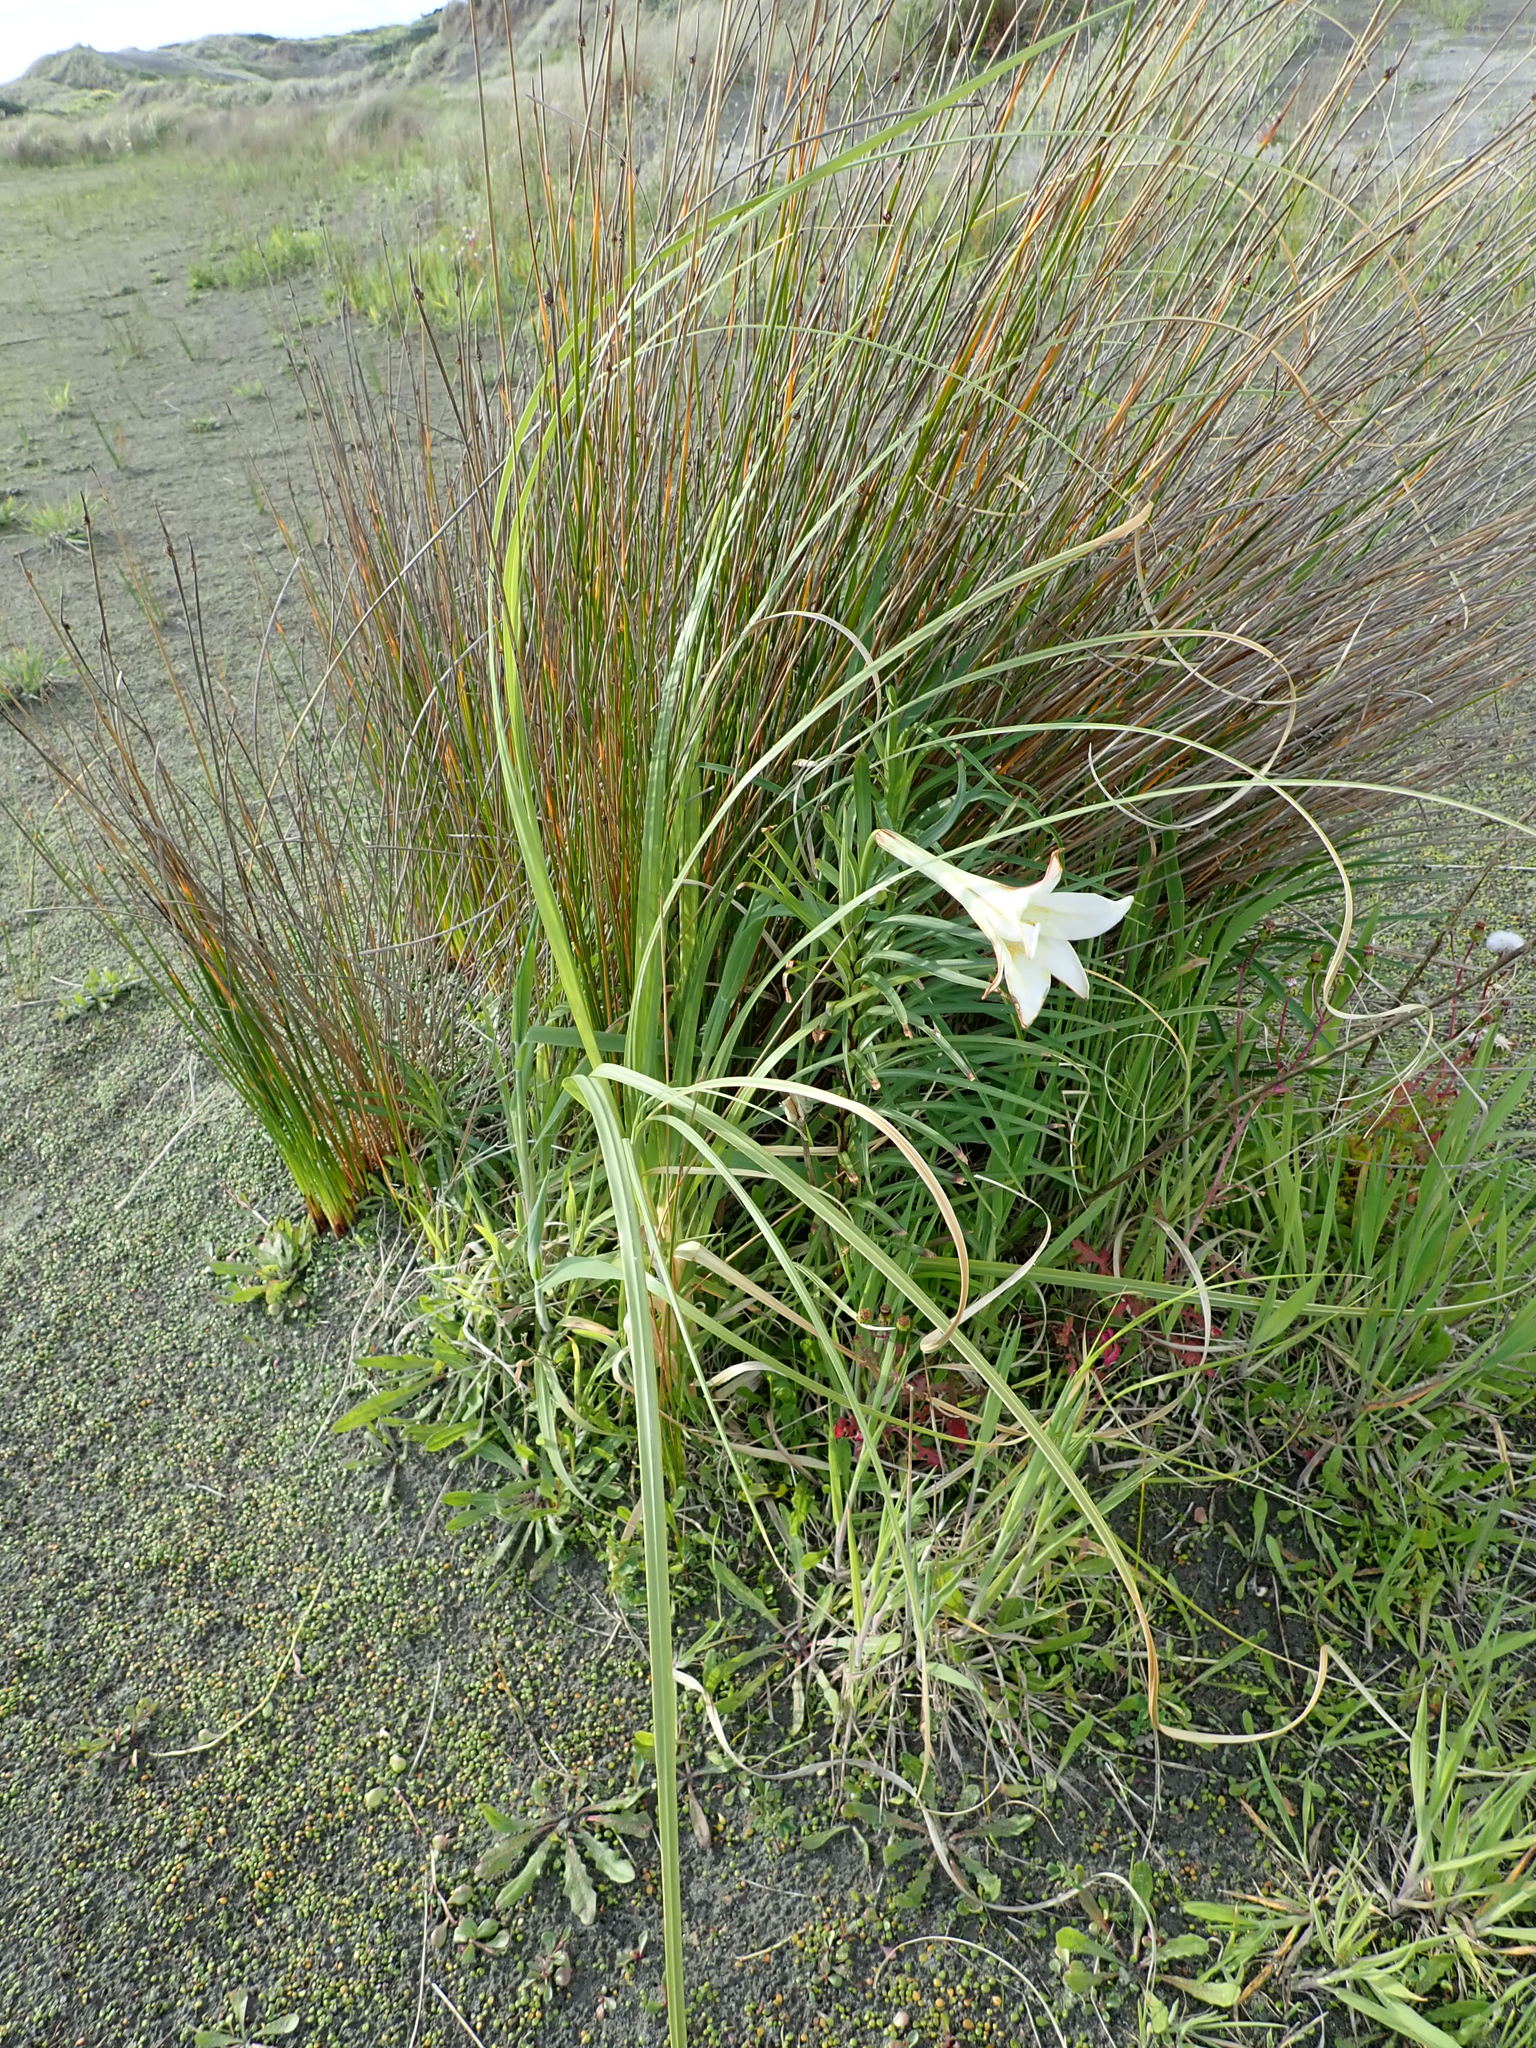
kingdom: Plantae
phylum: Tracheophyta
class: Liliopsida
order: Liliales
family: Liliaceae
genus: Lilium
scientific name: Lilium formosanum
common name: Formosa lily
